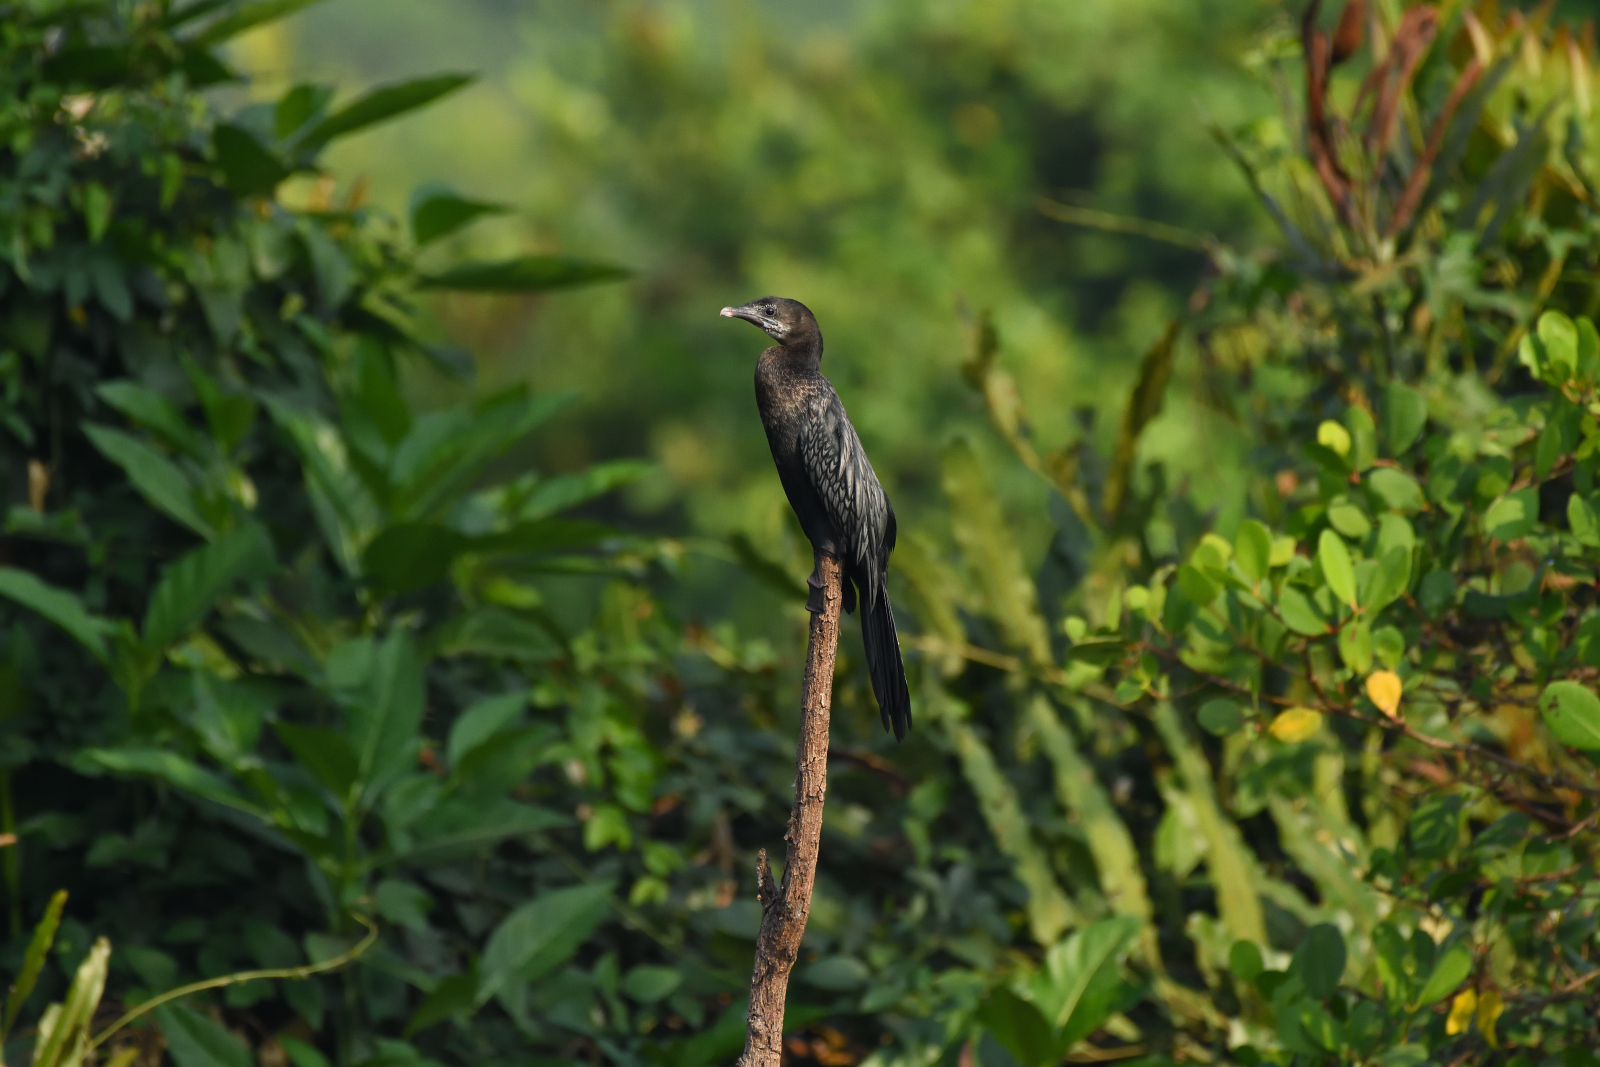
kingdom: Animalia
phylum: Chordata
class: Aves
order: Suliformes
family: Phalacrocoracidae
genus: Microcarbo
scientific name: Microcarbo niger
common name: Little cormorant
